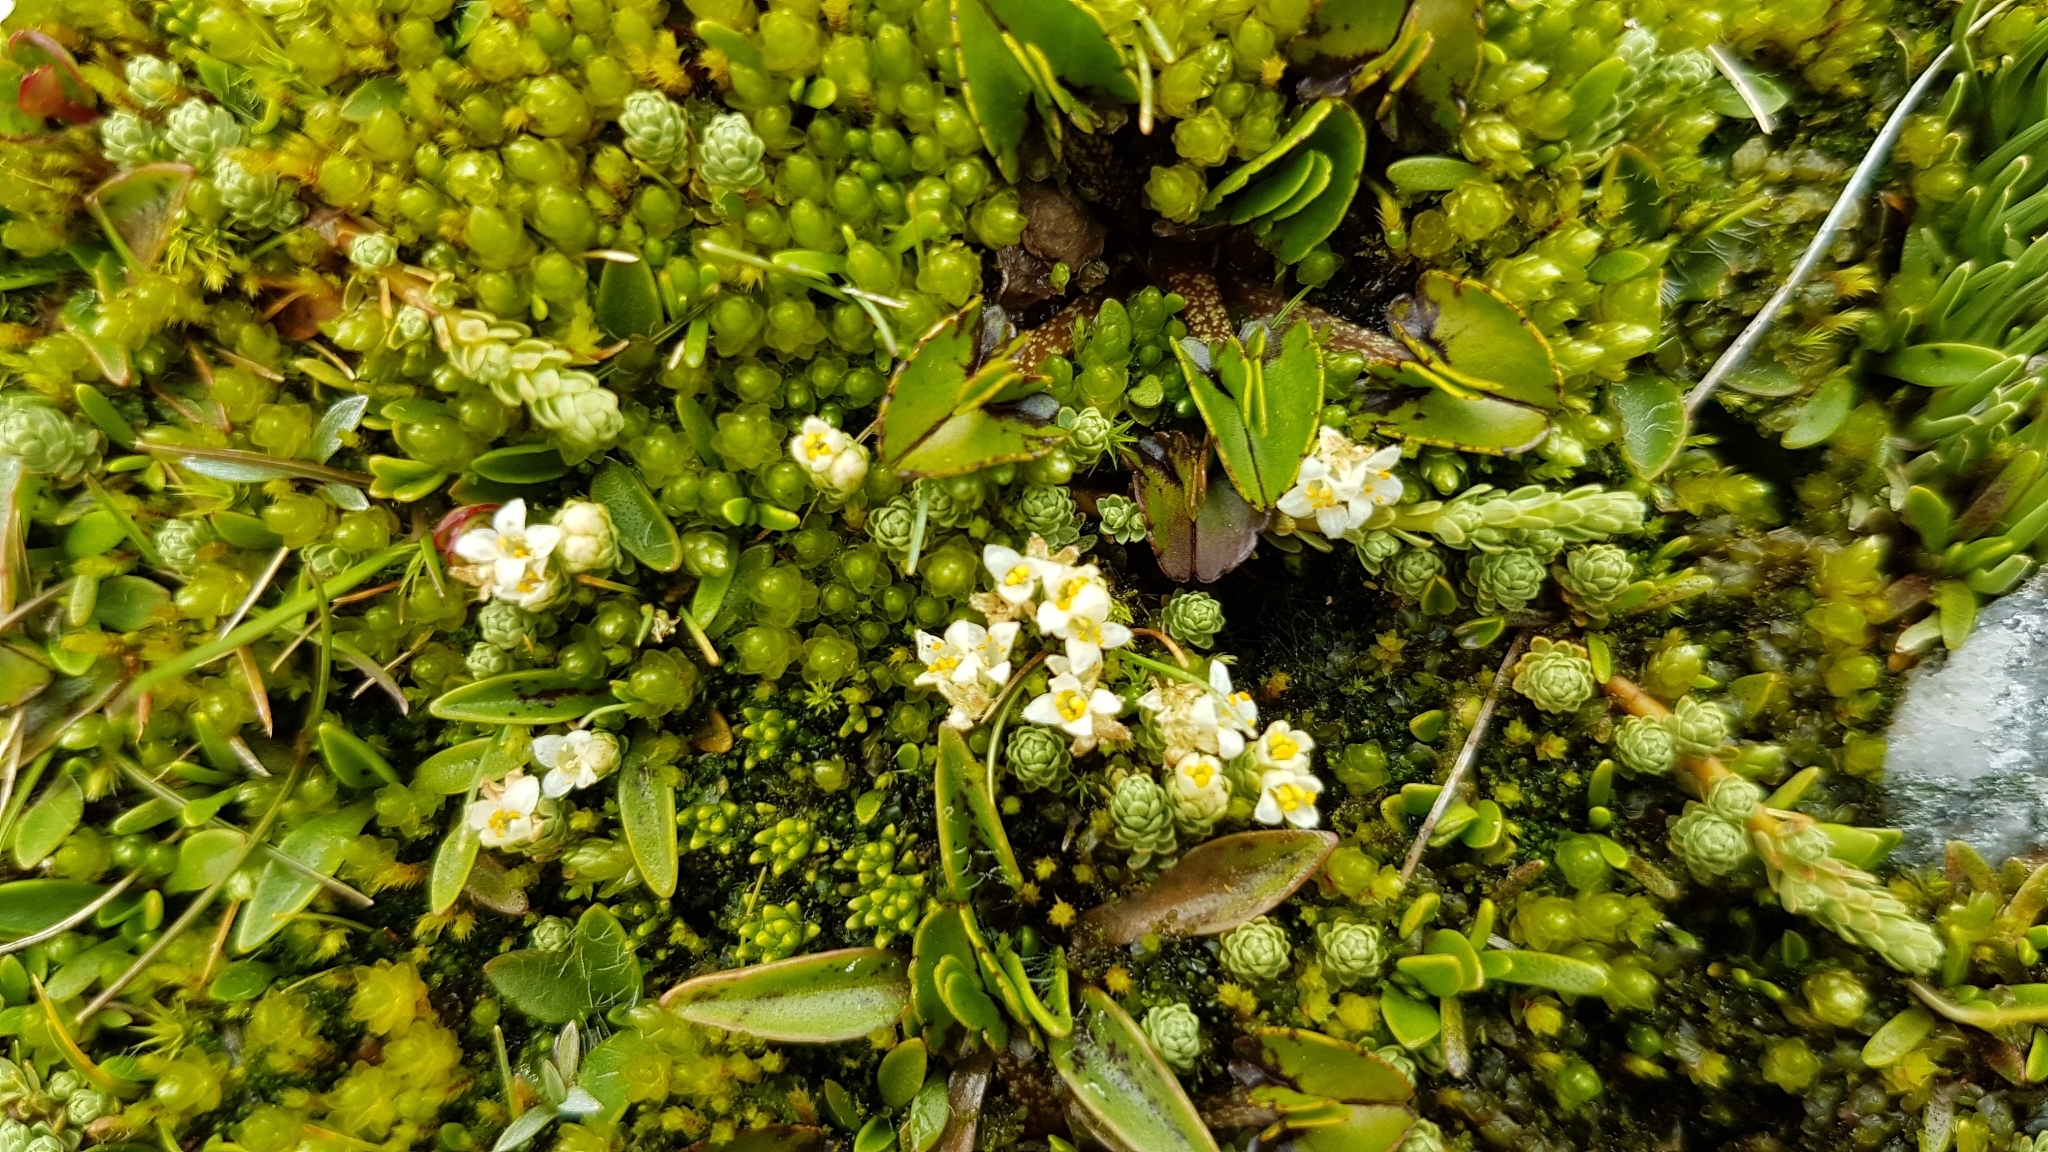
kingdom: Plantae
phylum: Tracheophyta
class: Magnoliopsida
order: Malvales
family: Thymelaeaceae
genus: Kelleria
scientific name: Kelleria paludosa
